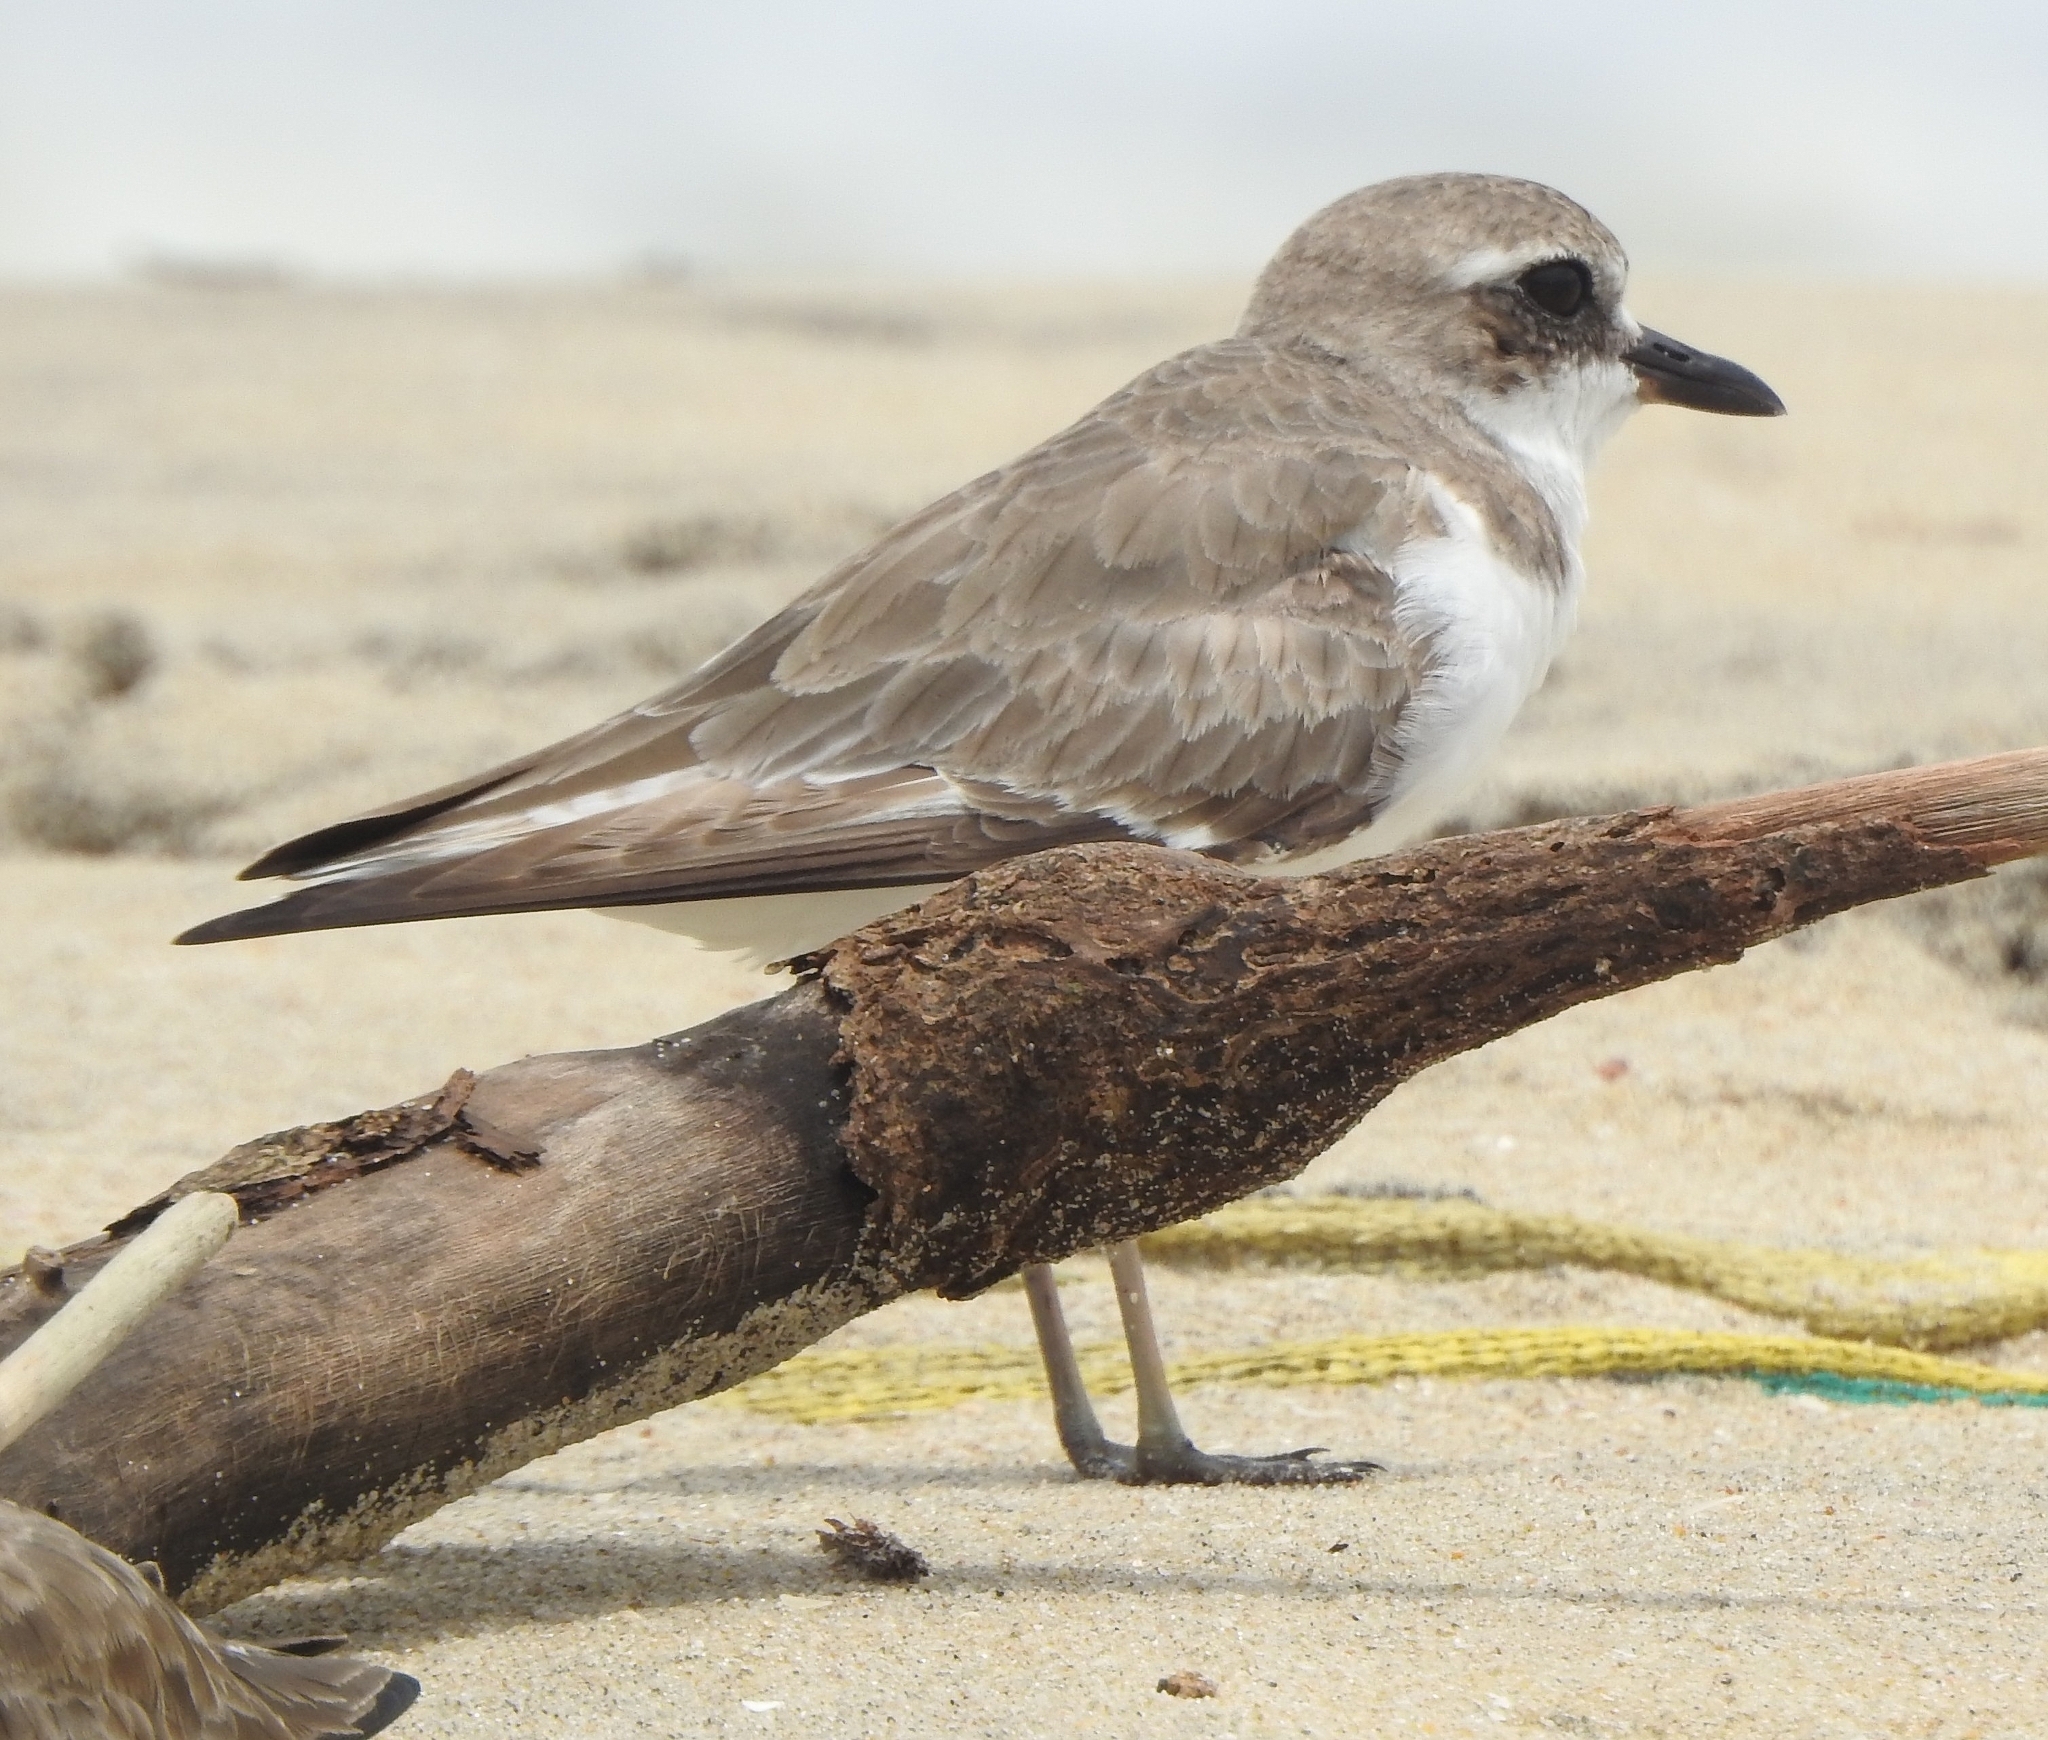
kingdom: Animalia
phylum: Chordata
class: Aves
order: Charadriiformes
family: Charadriidae
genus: Charadrius
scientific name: Charadrius leschenaultii
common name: Greater sand plover
